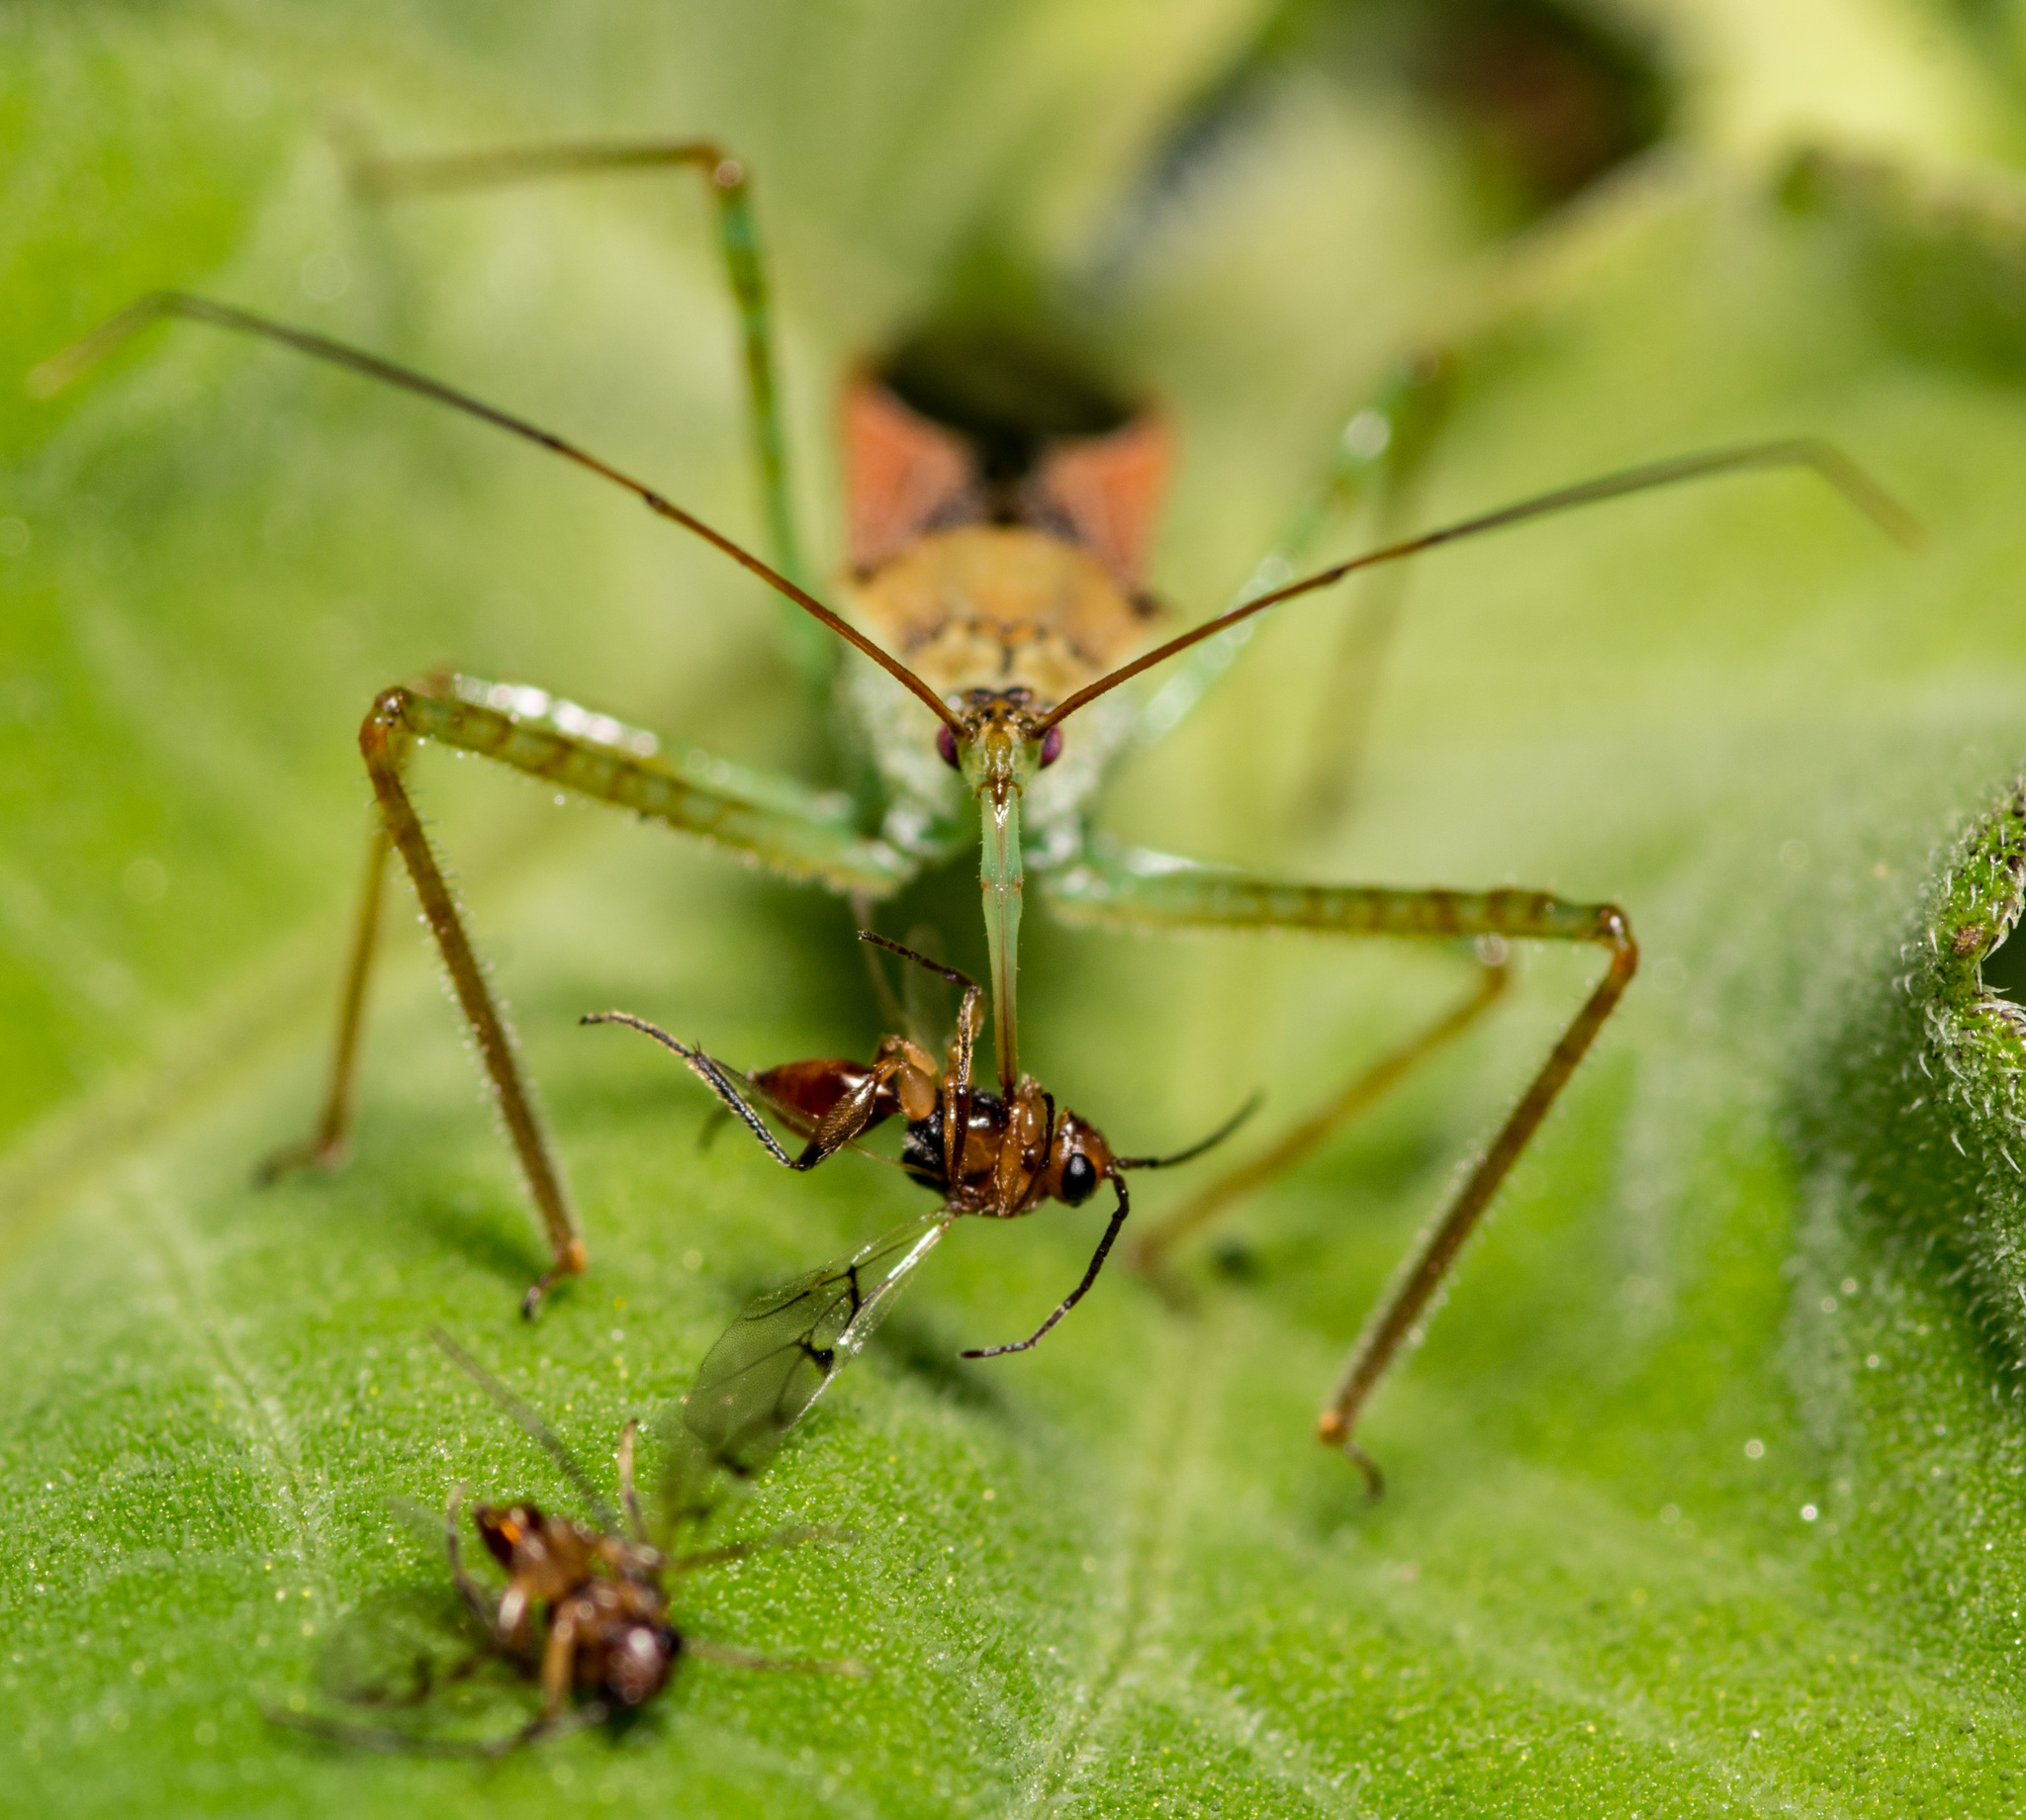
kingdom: Animalia
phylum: Arthropoda
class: Insecta
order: Hemiptera
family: Reduviidae
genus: Zelus
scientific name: Zelus renardii
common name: Assassin bug
